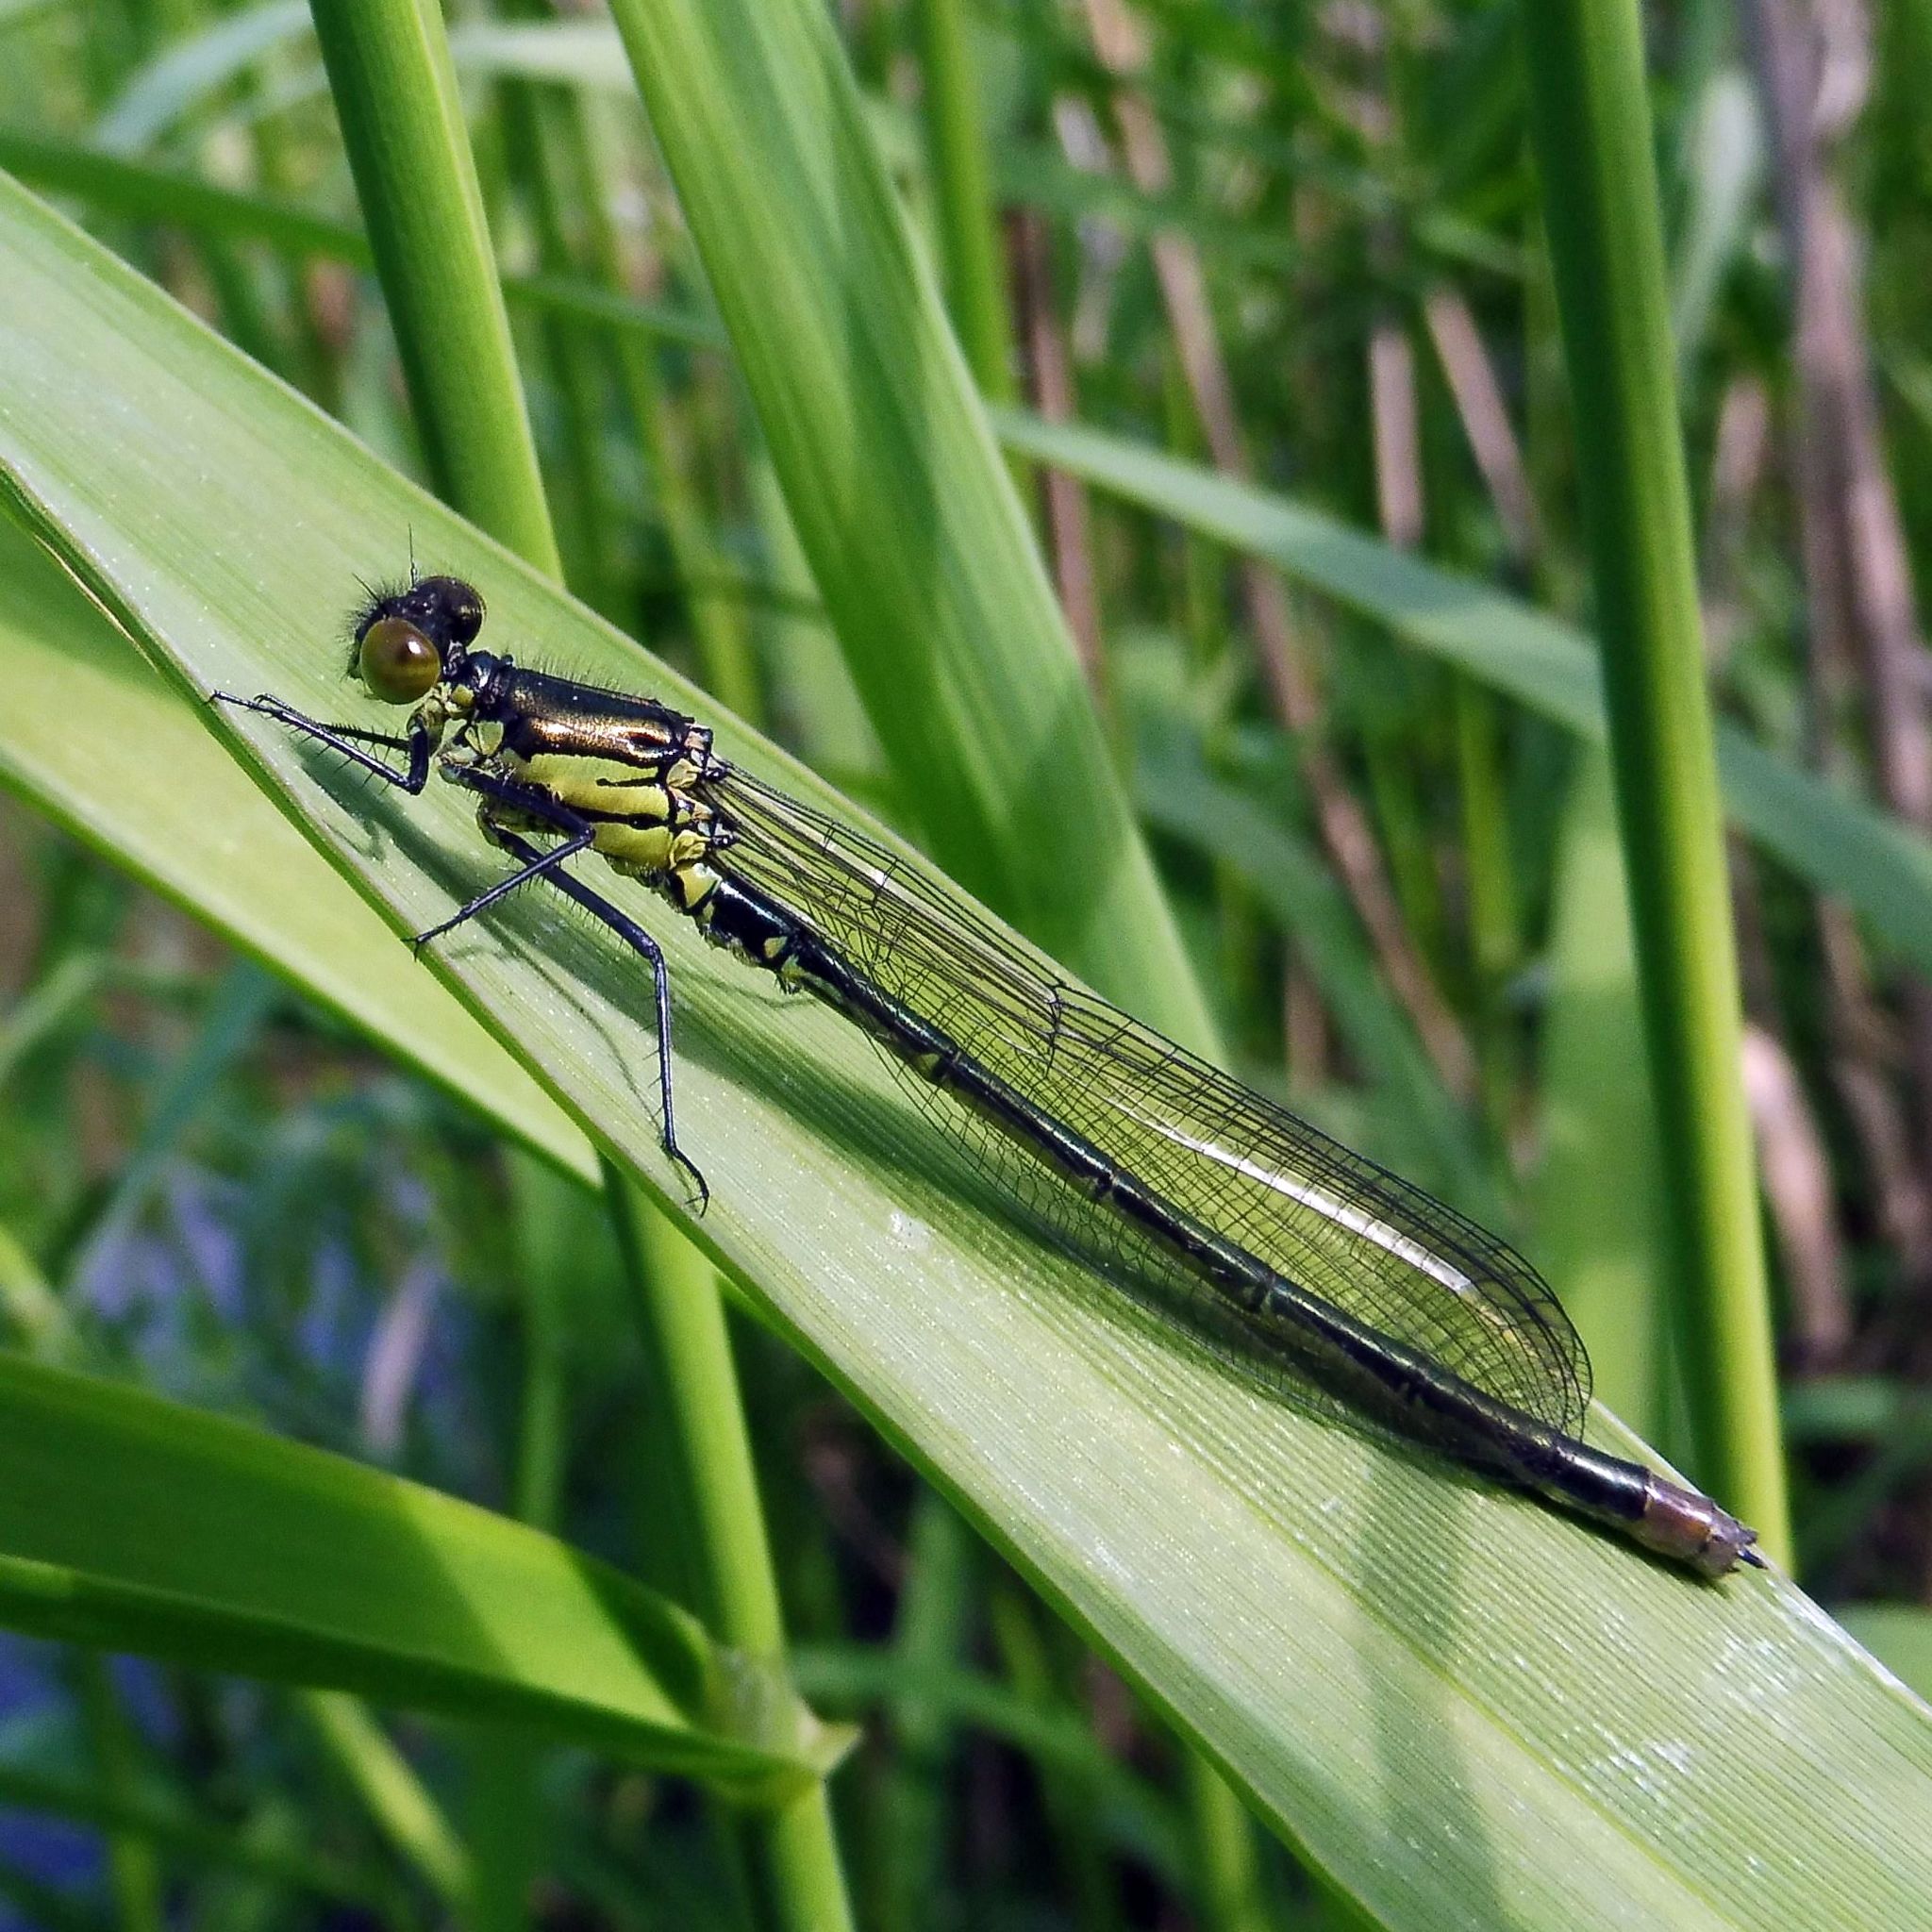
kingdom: Animalia
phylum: Arthropoda
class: Insecta
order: Odonata
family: Coenagrionidae
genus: Erythromma
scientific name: Erythromma najas
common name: Red-eyed damselfly
